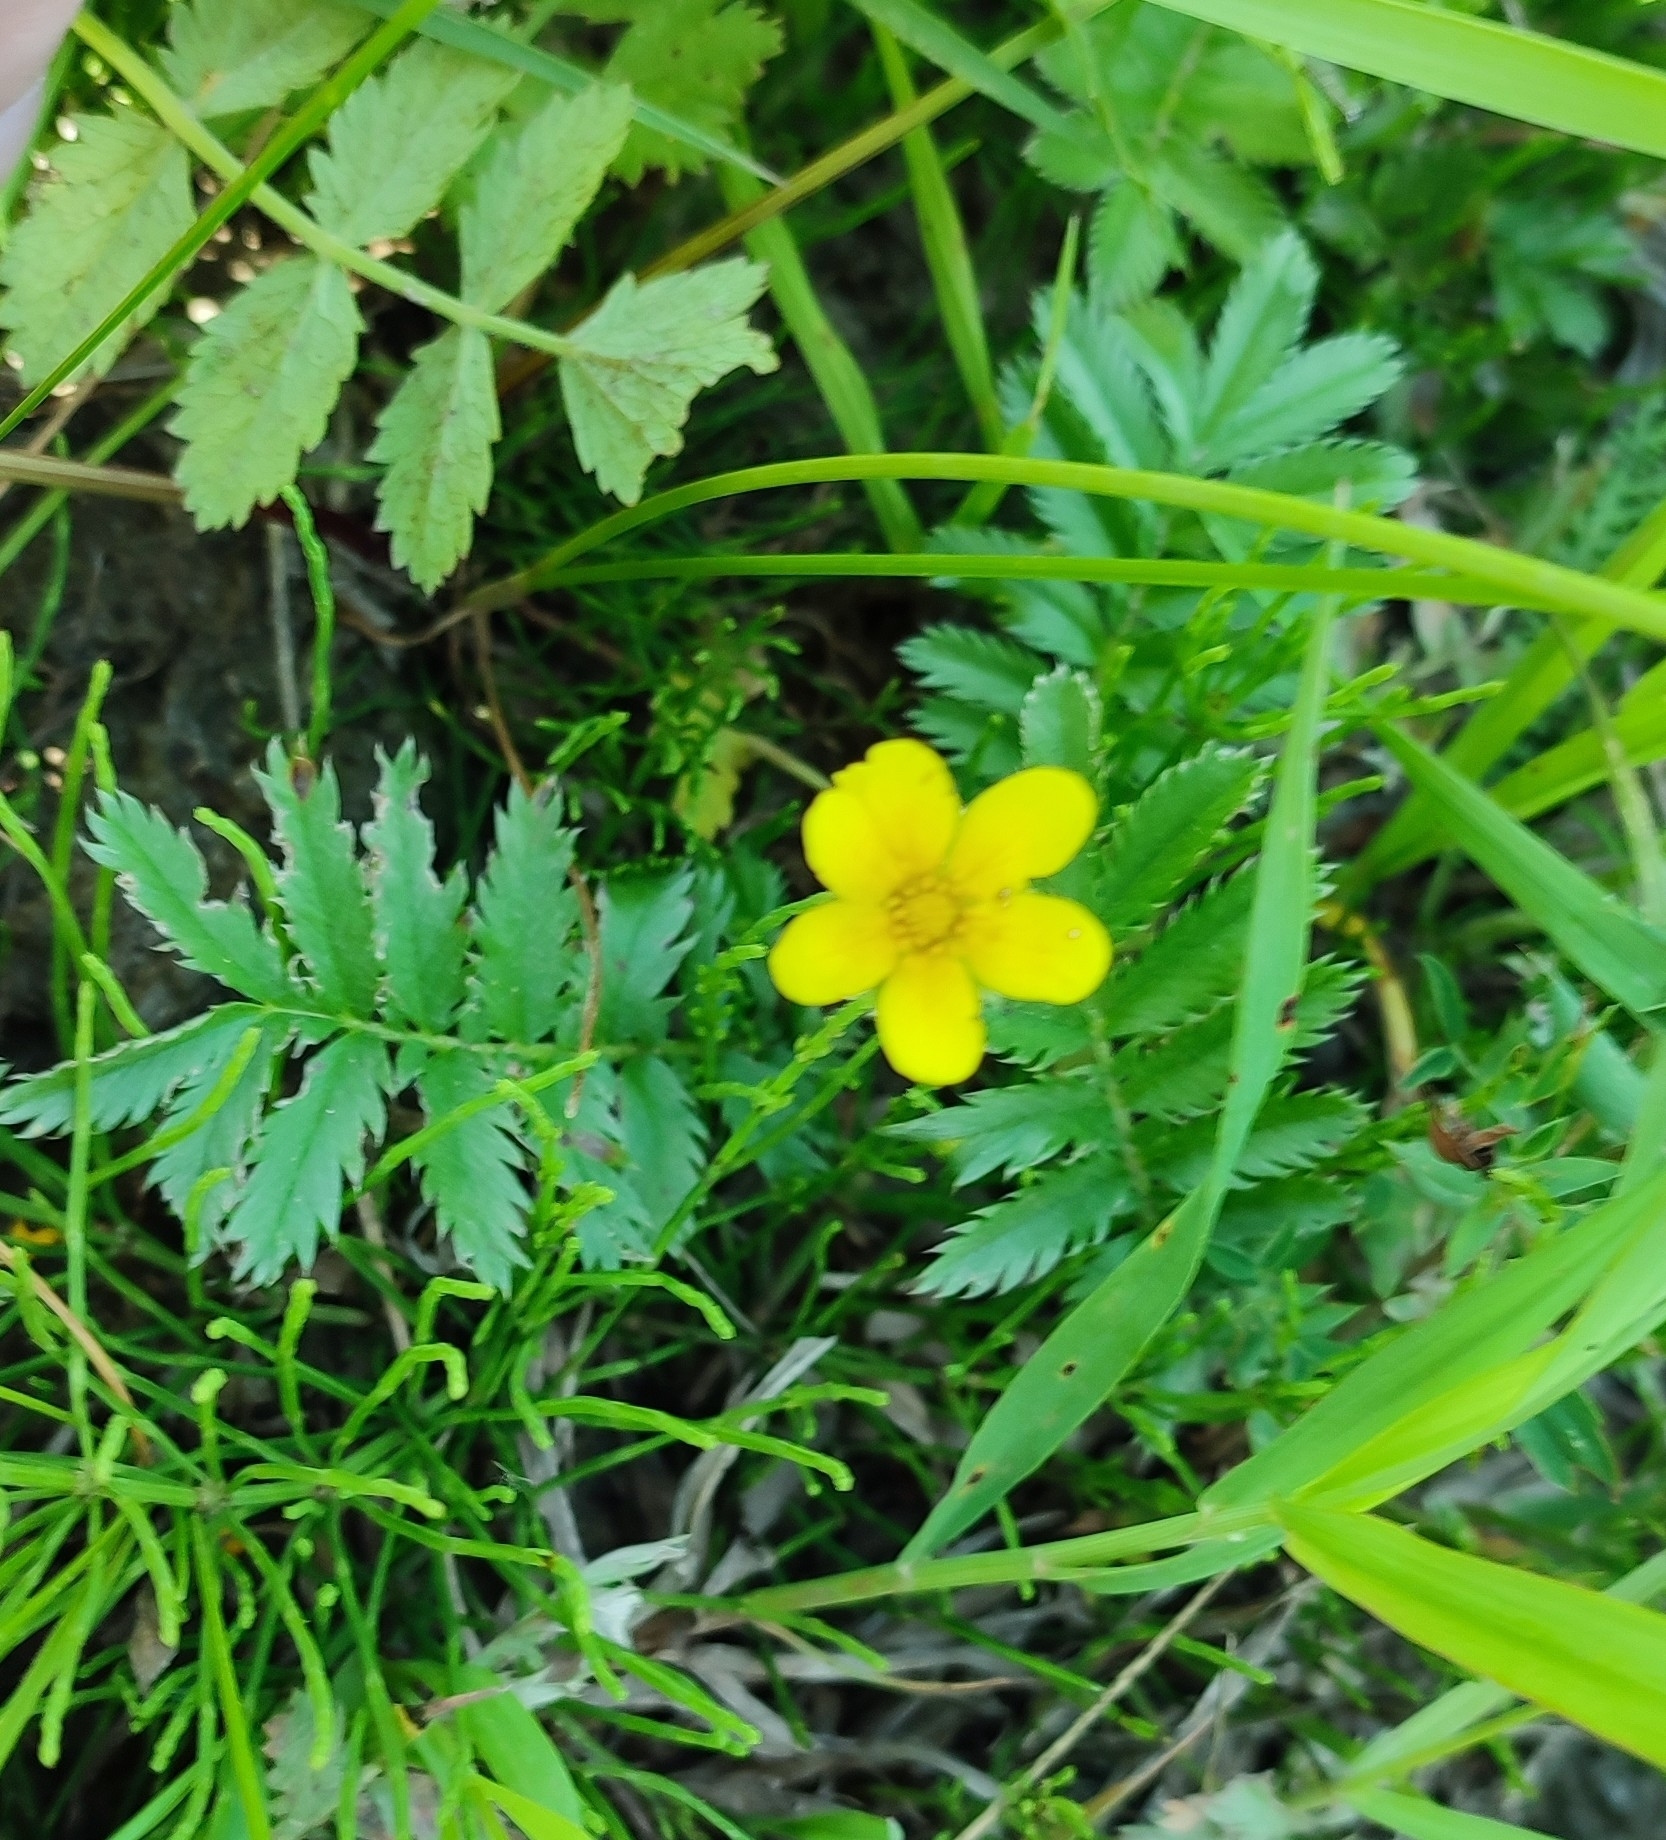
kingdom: Plantae
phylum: Tracheophyta
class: Magnoliopsida
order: Rosales
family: Rosaceae
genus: Argentina
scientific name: Argentina anserina
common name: Common silverweed
